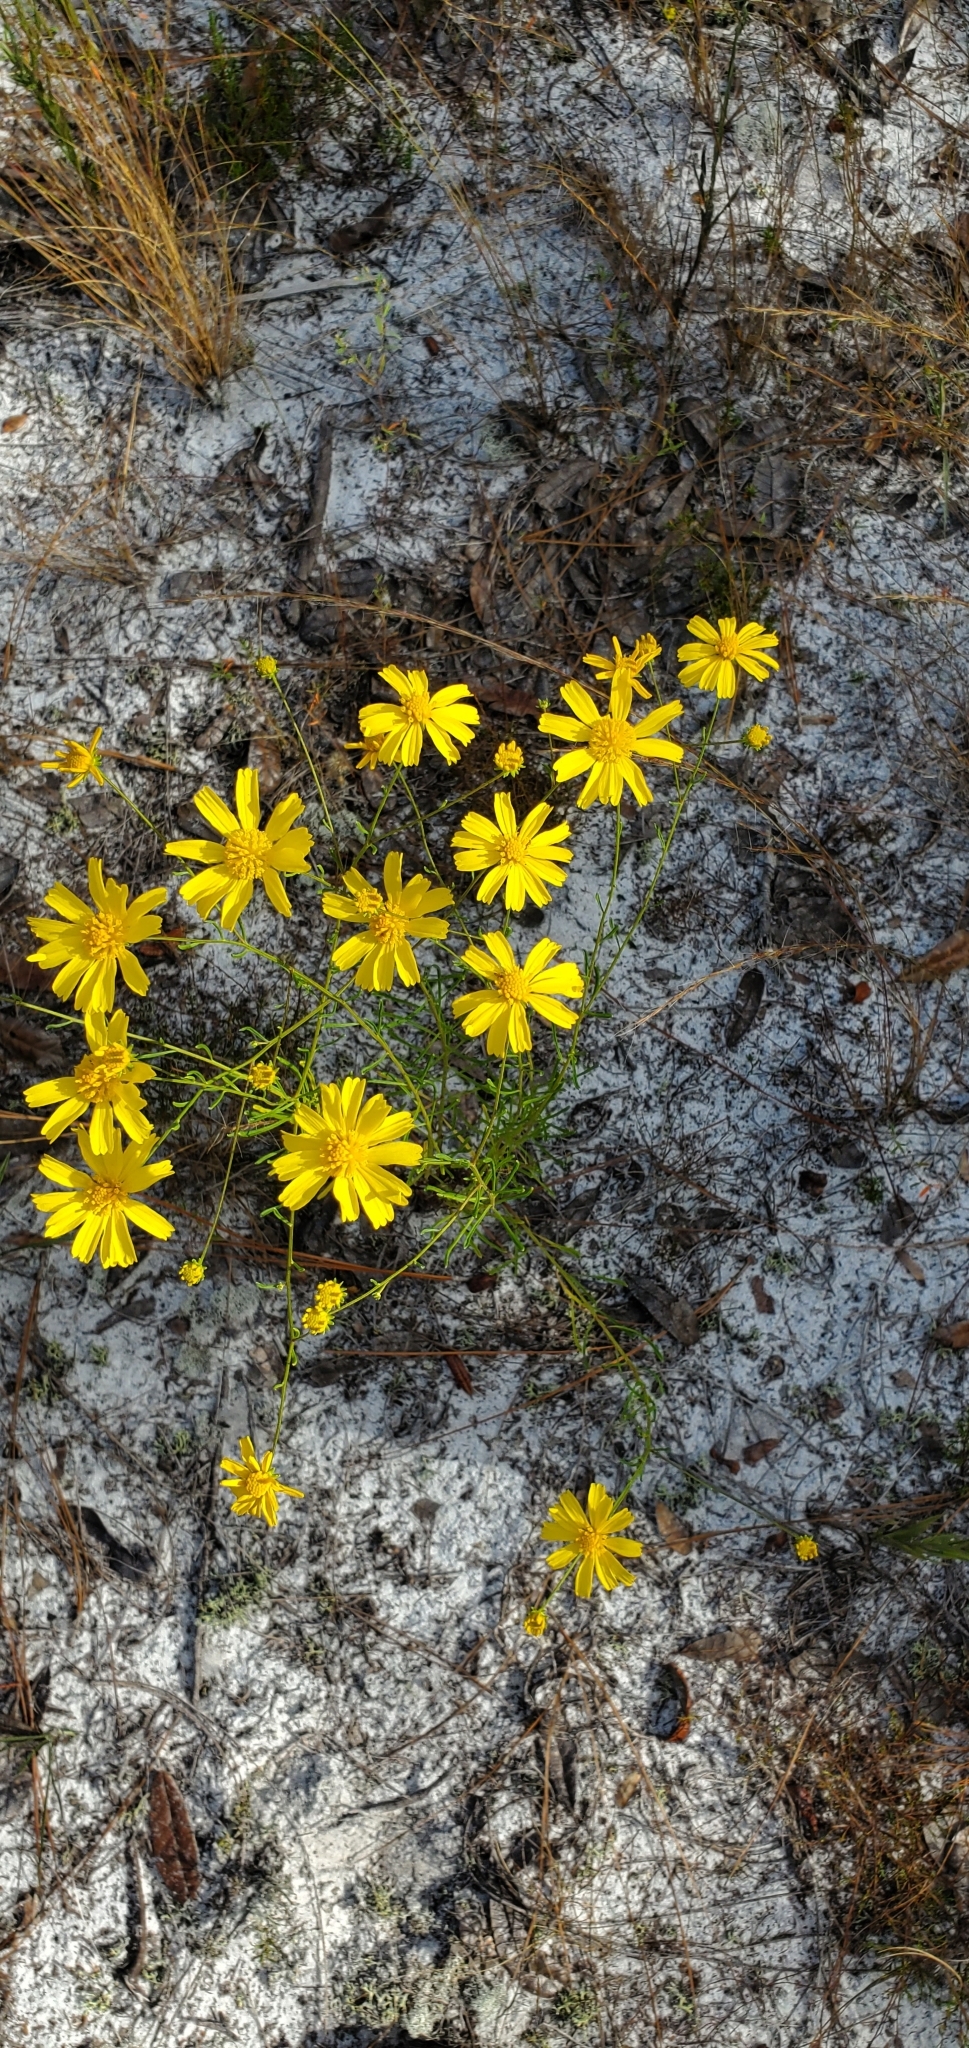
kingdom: Plantae
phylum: Tracheophyta
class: Magnoliopsida
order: Asterales
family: Asteraceae
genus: Balduina
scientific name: Balduina angustifolia
